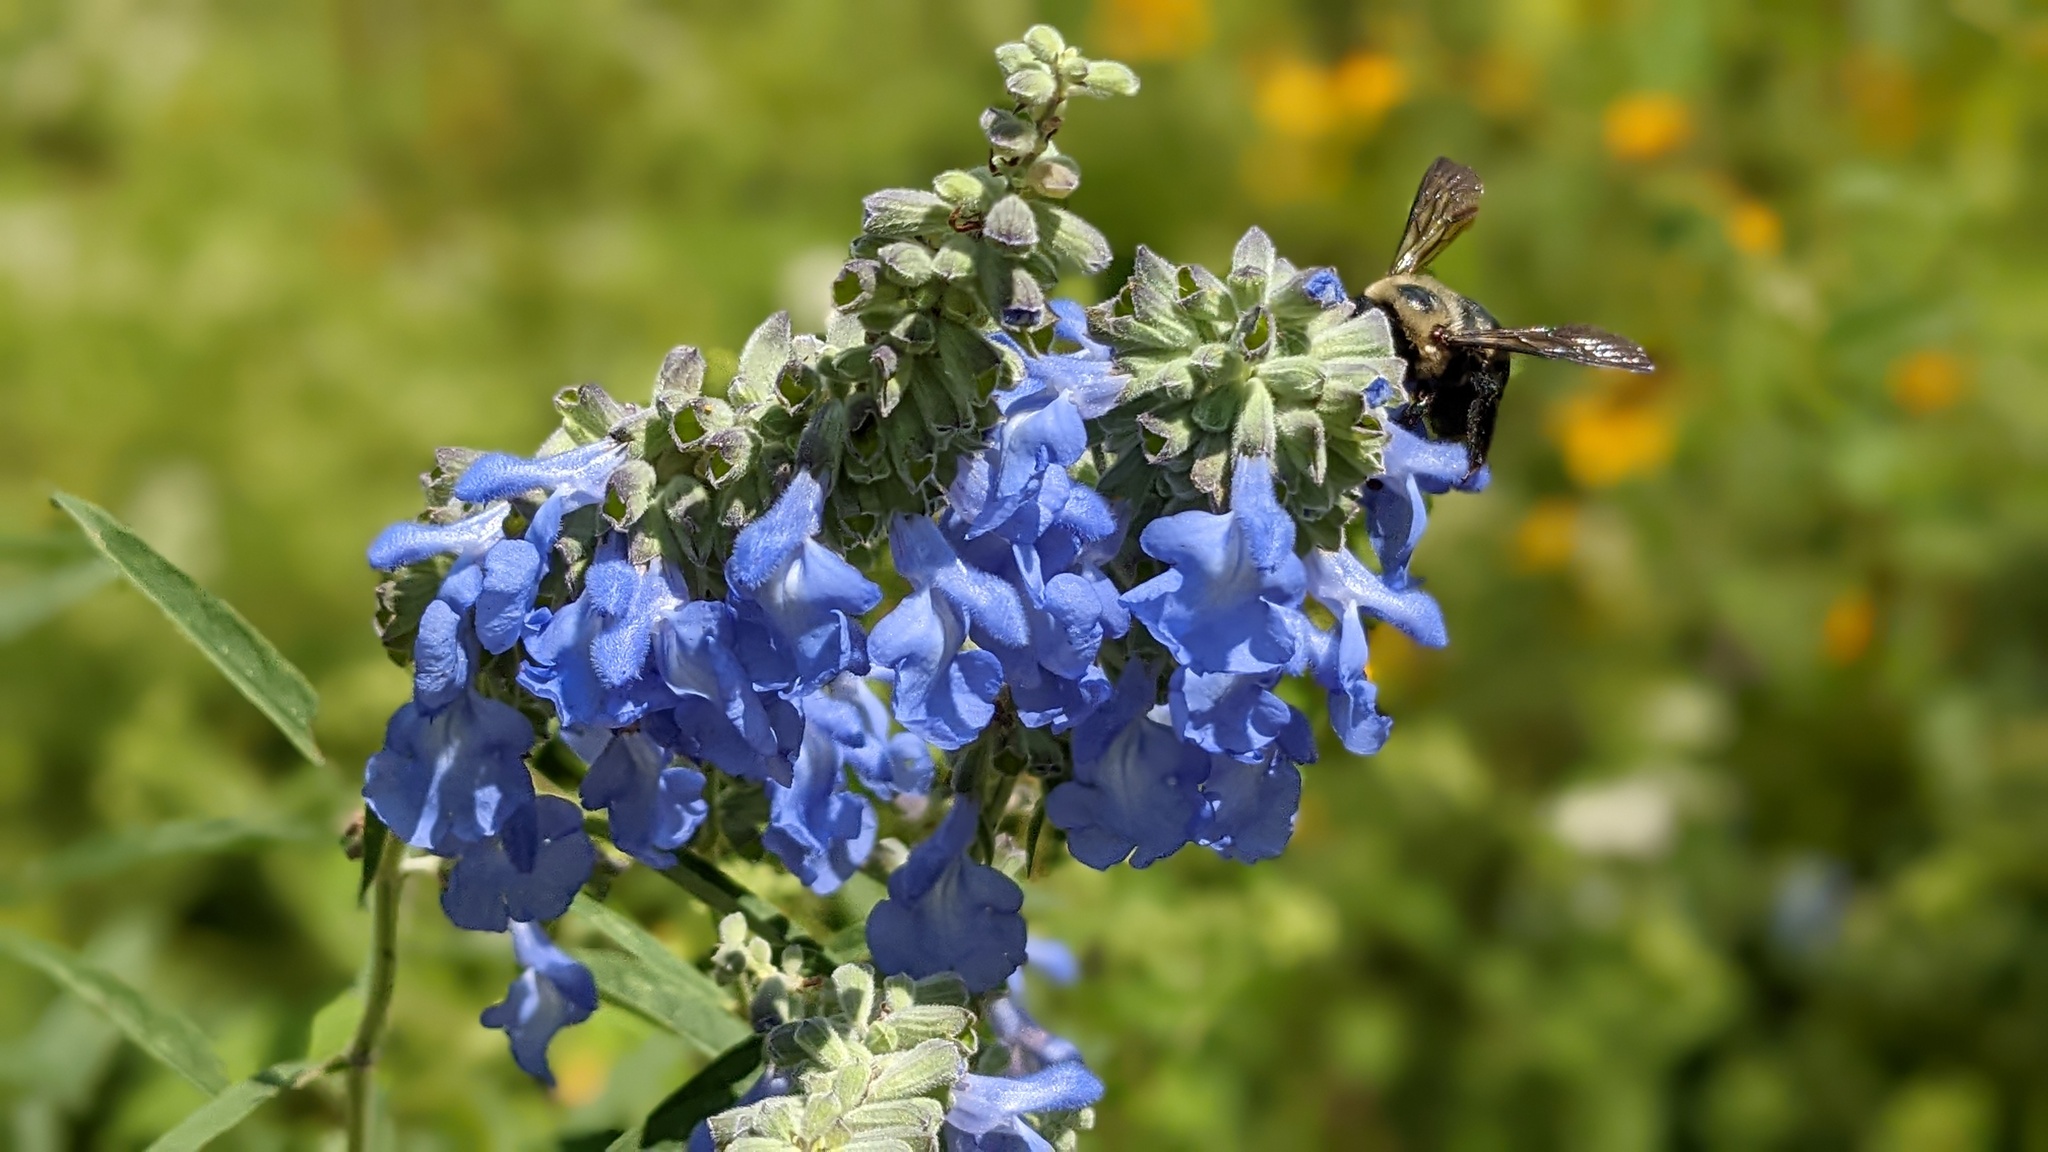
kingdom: Plantae
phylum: Tracheophyta
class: Magnoliopsida
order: Lamiales
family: Lamiaceae
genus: Salvia
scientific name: Salvia azurea
